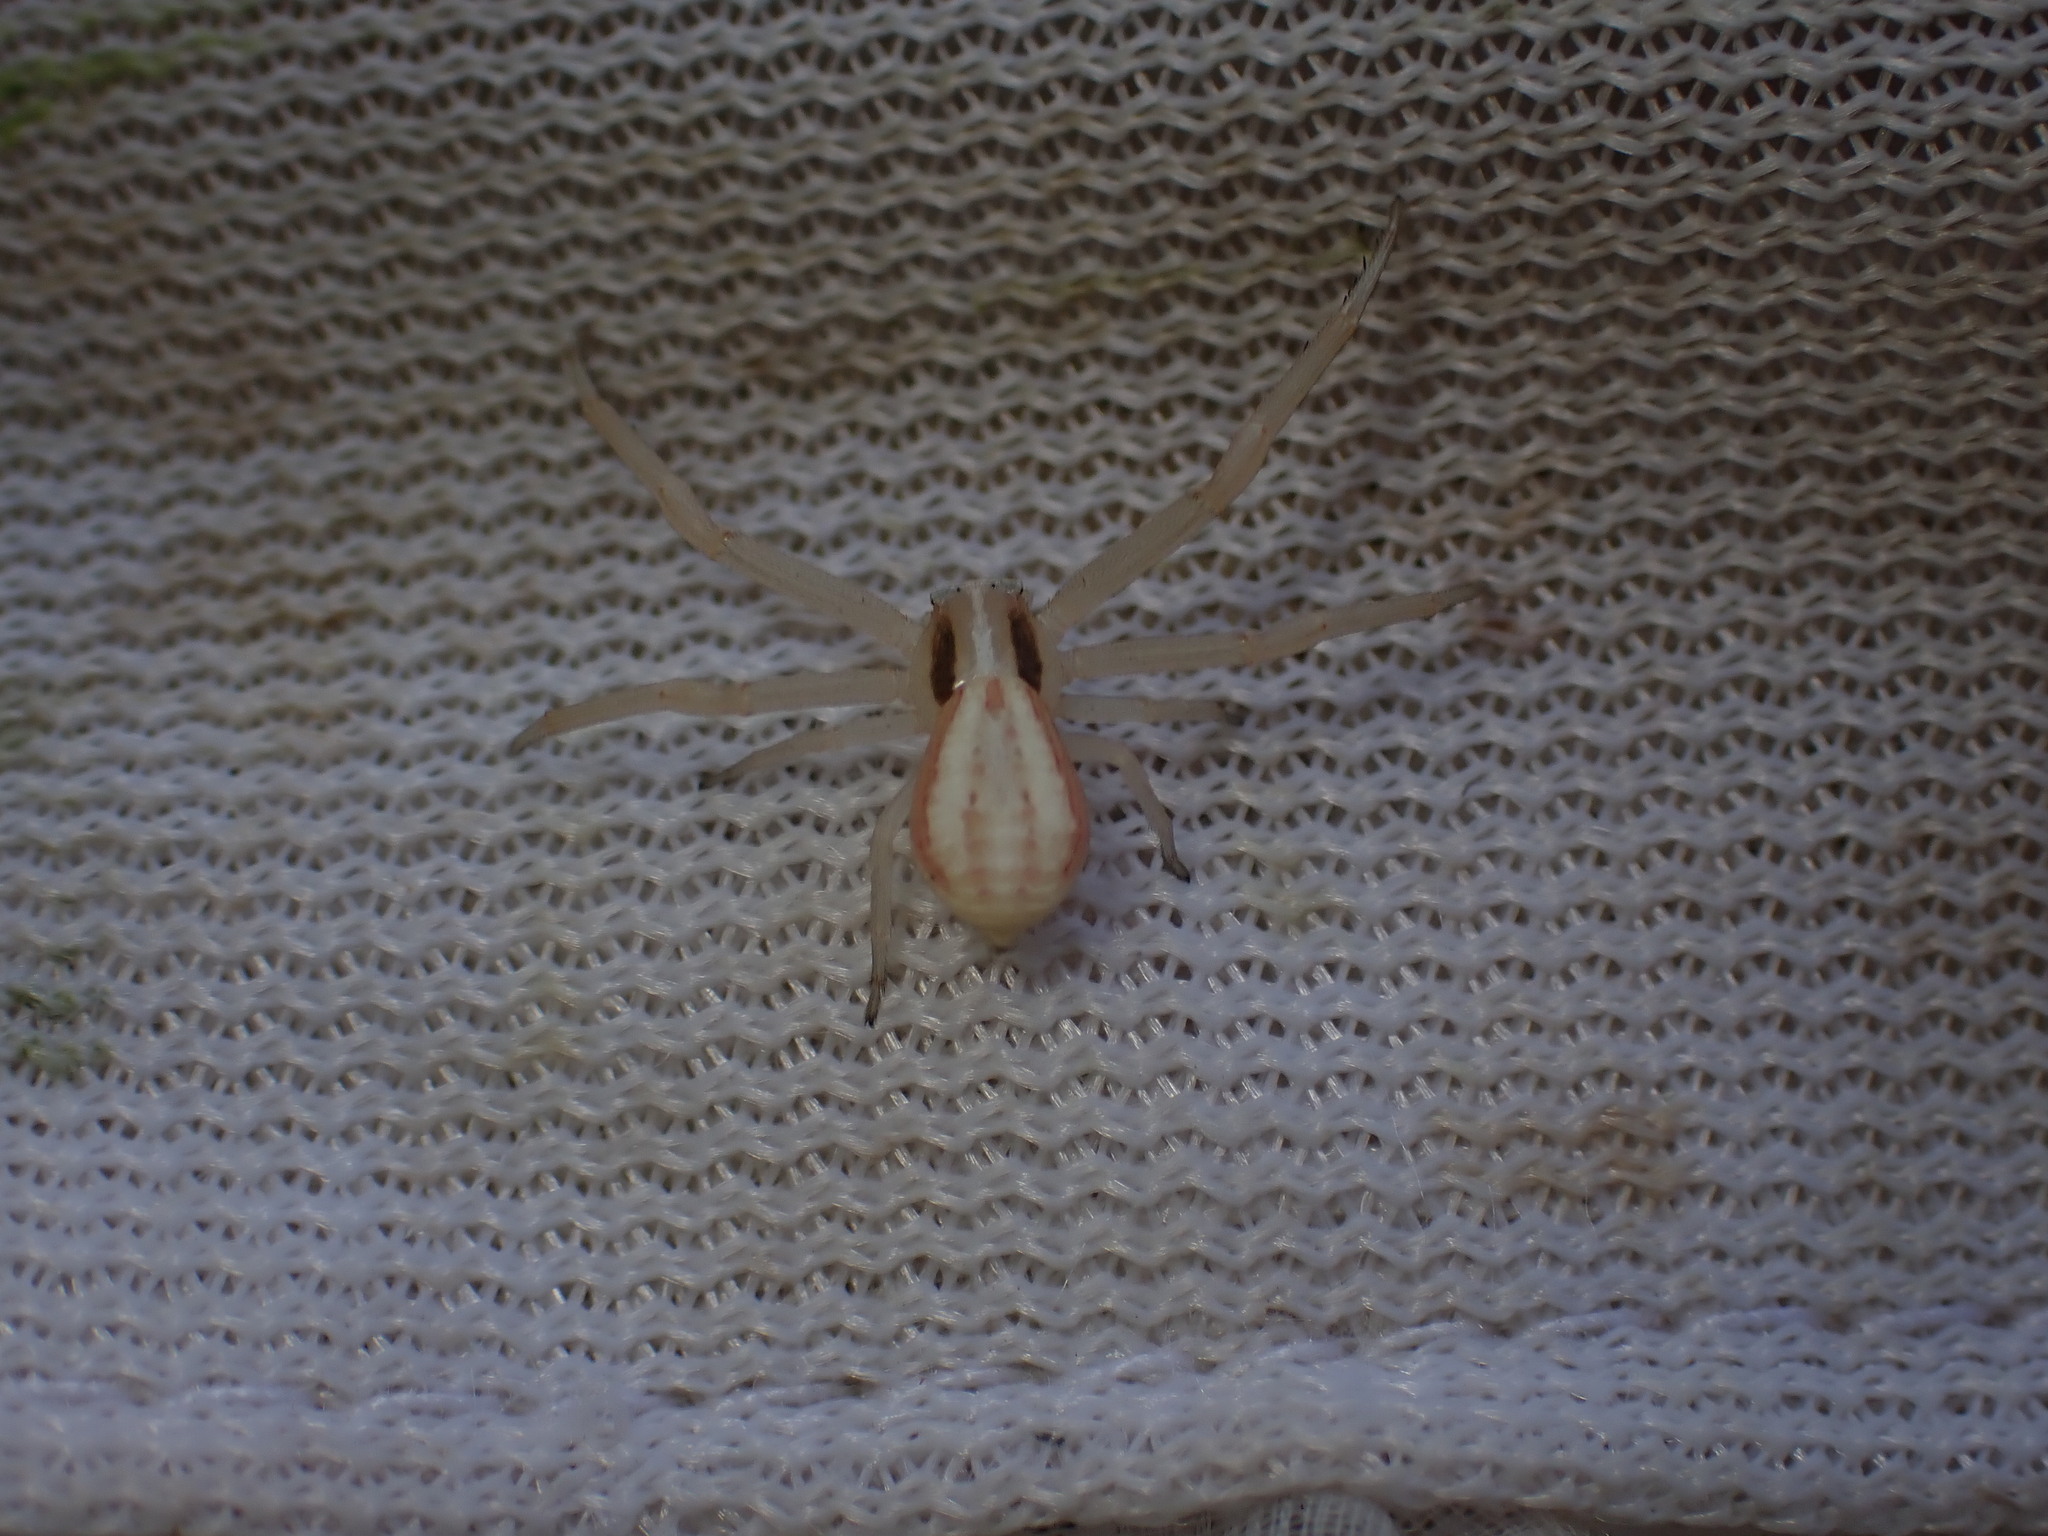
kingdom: Animalia
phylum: Arthropoda
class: Arachnida
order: Araneae
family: Thomisidae
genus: Runcinia
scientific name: Runcinia grammica
